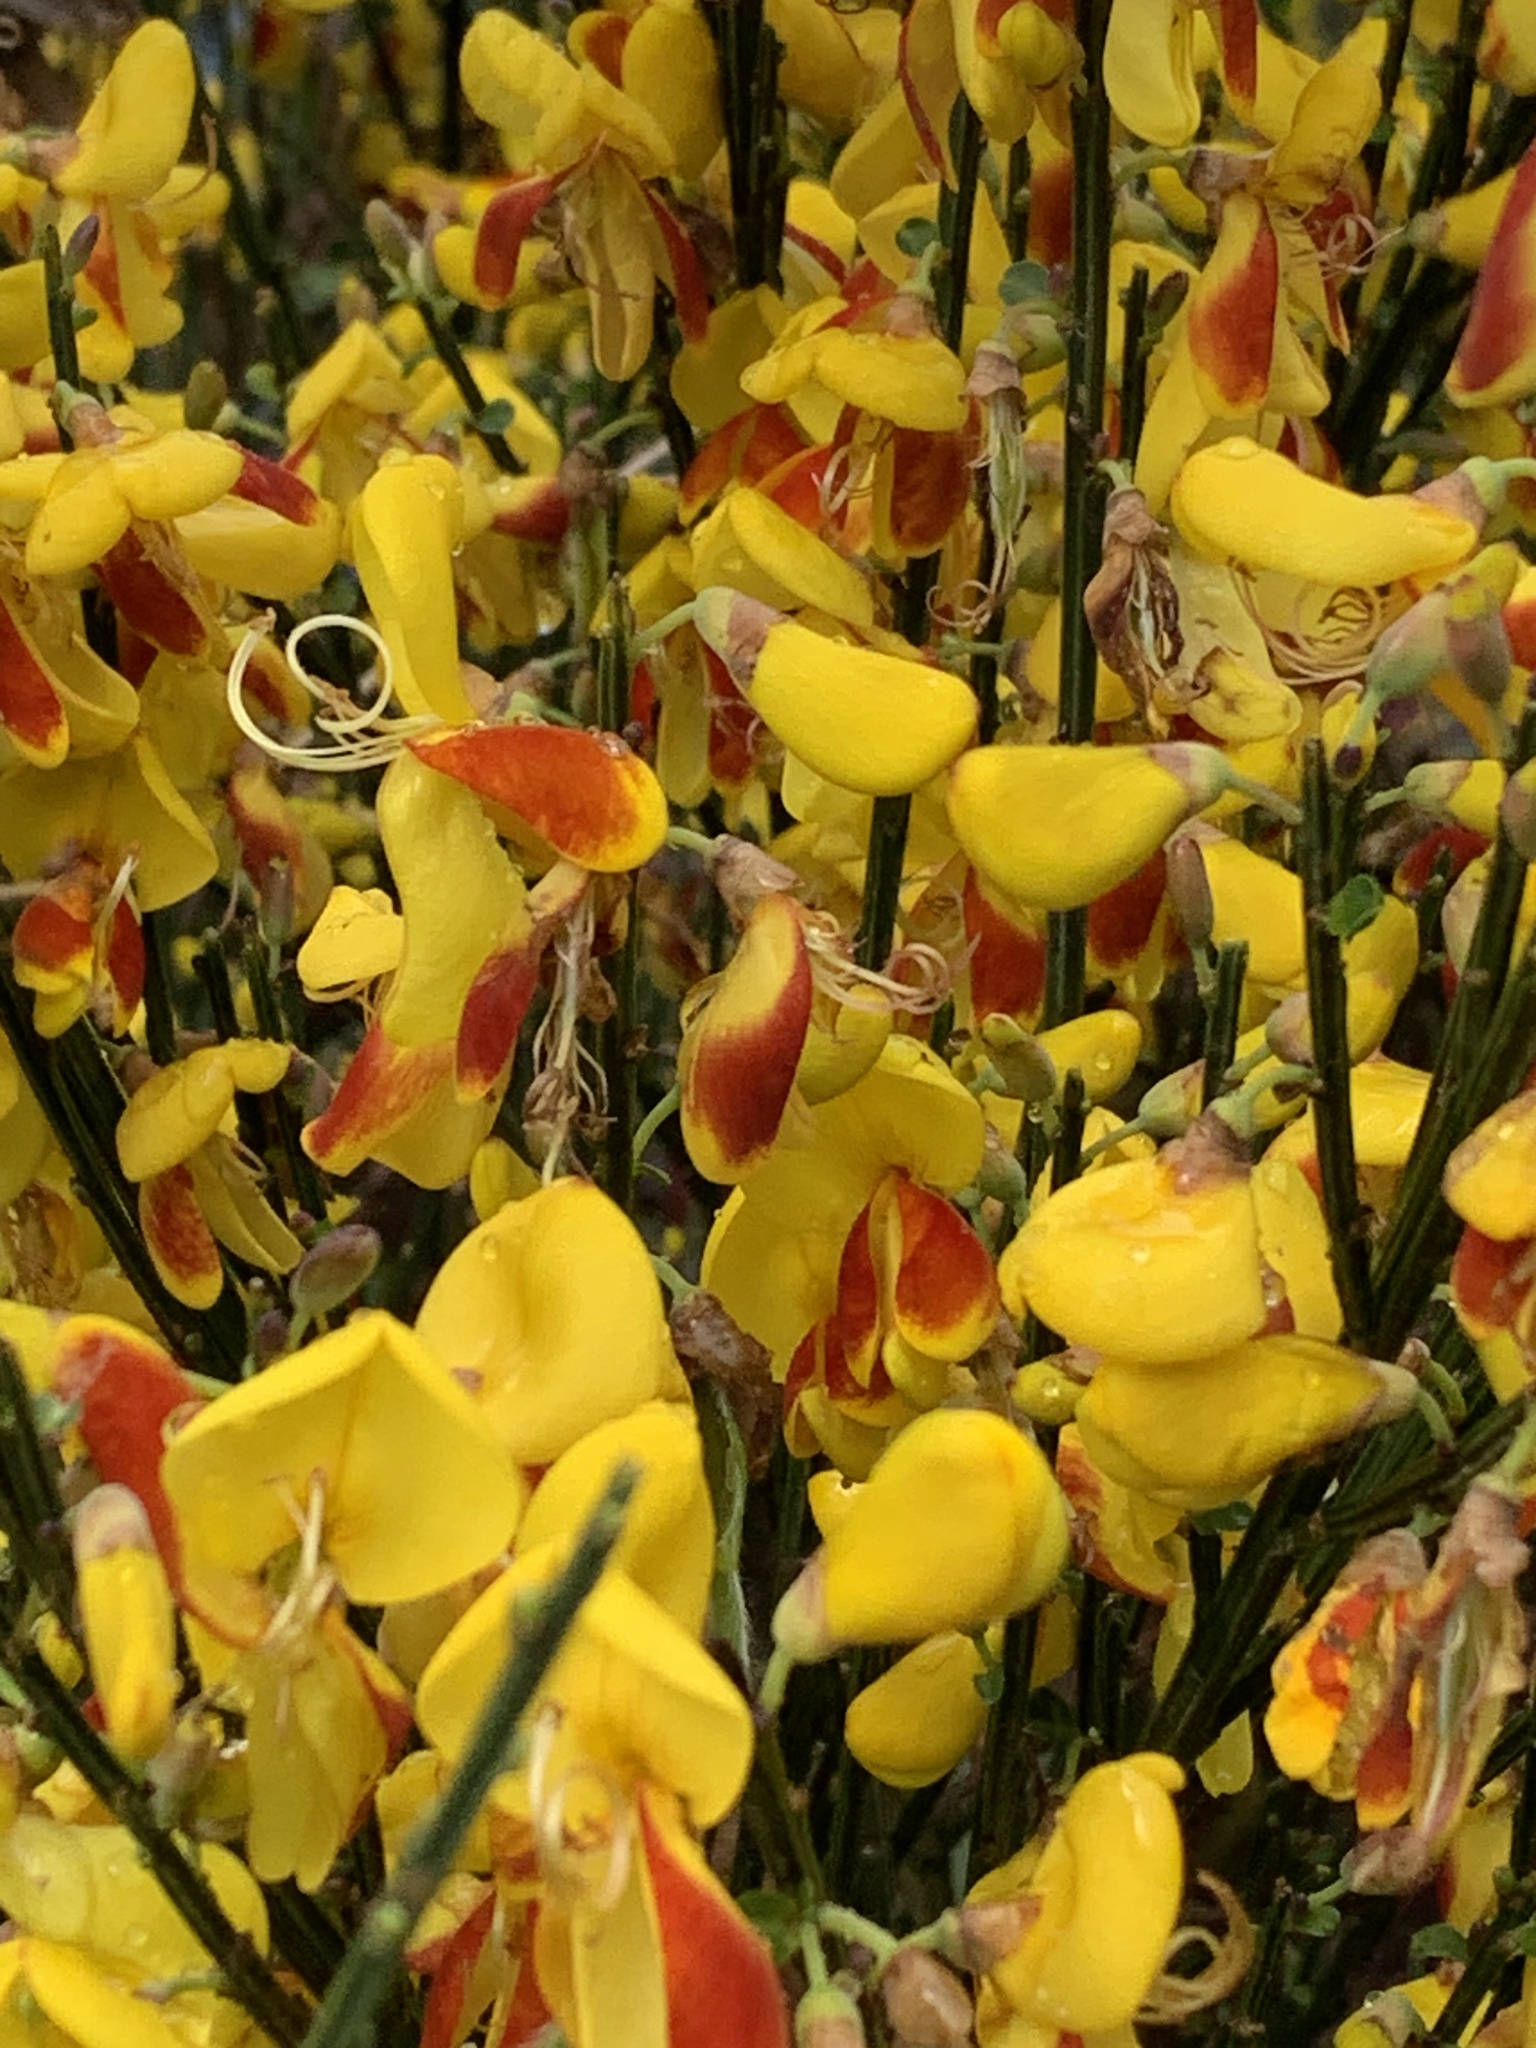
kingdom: Plantae
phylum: Tracheophyta
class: Magnoliopsida
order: Fabales
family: Fabaceae
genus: Cytisus
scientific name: Cytisus scoparius
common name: Scotch broom
